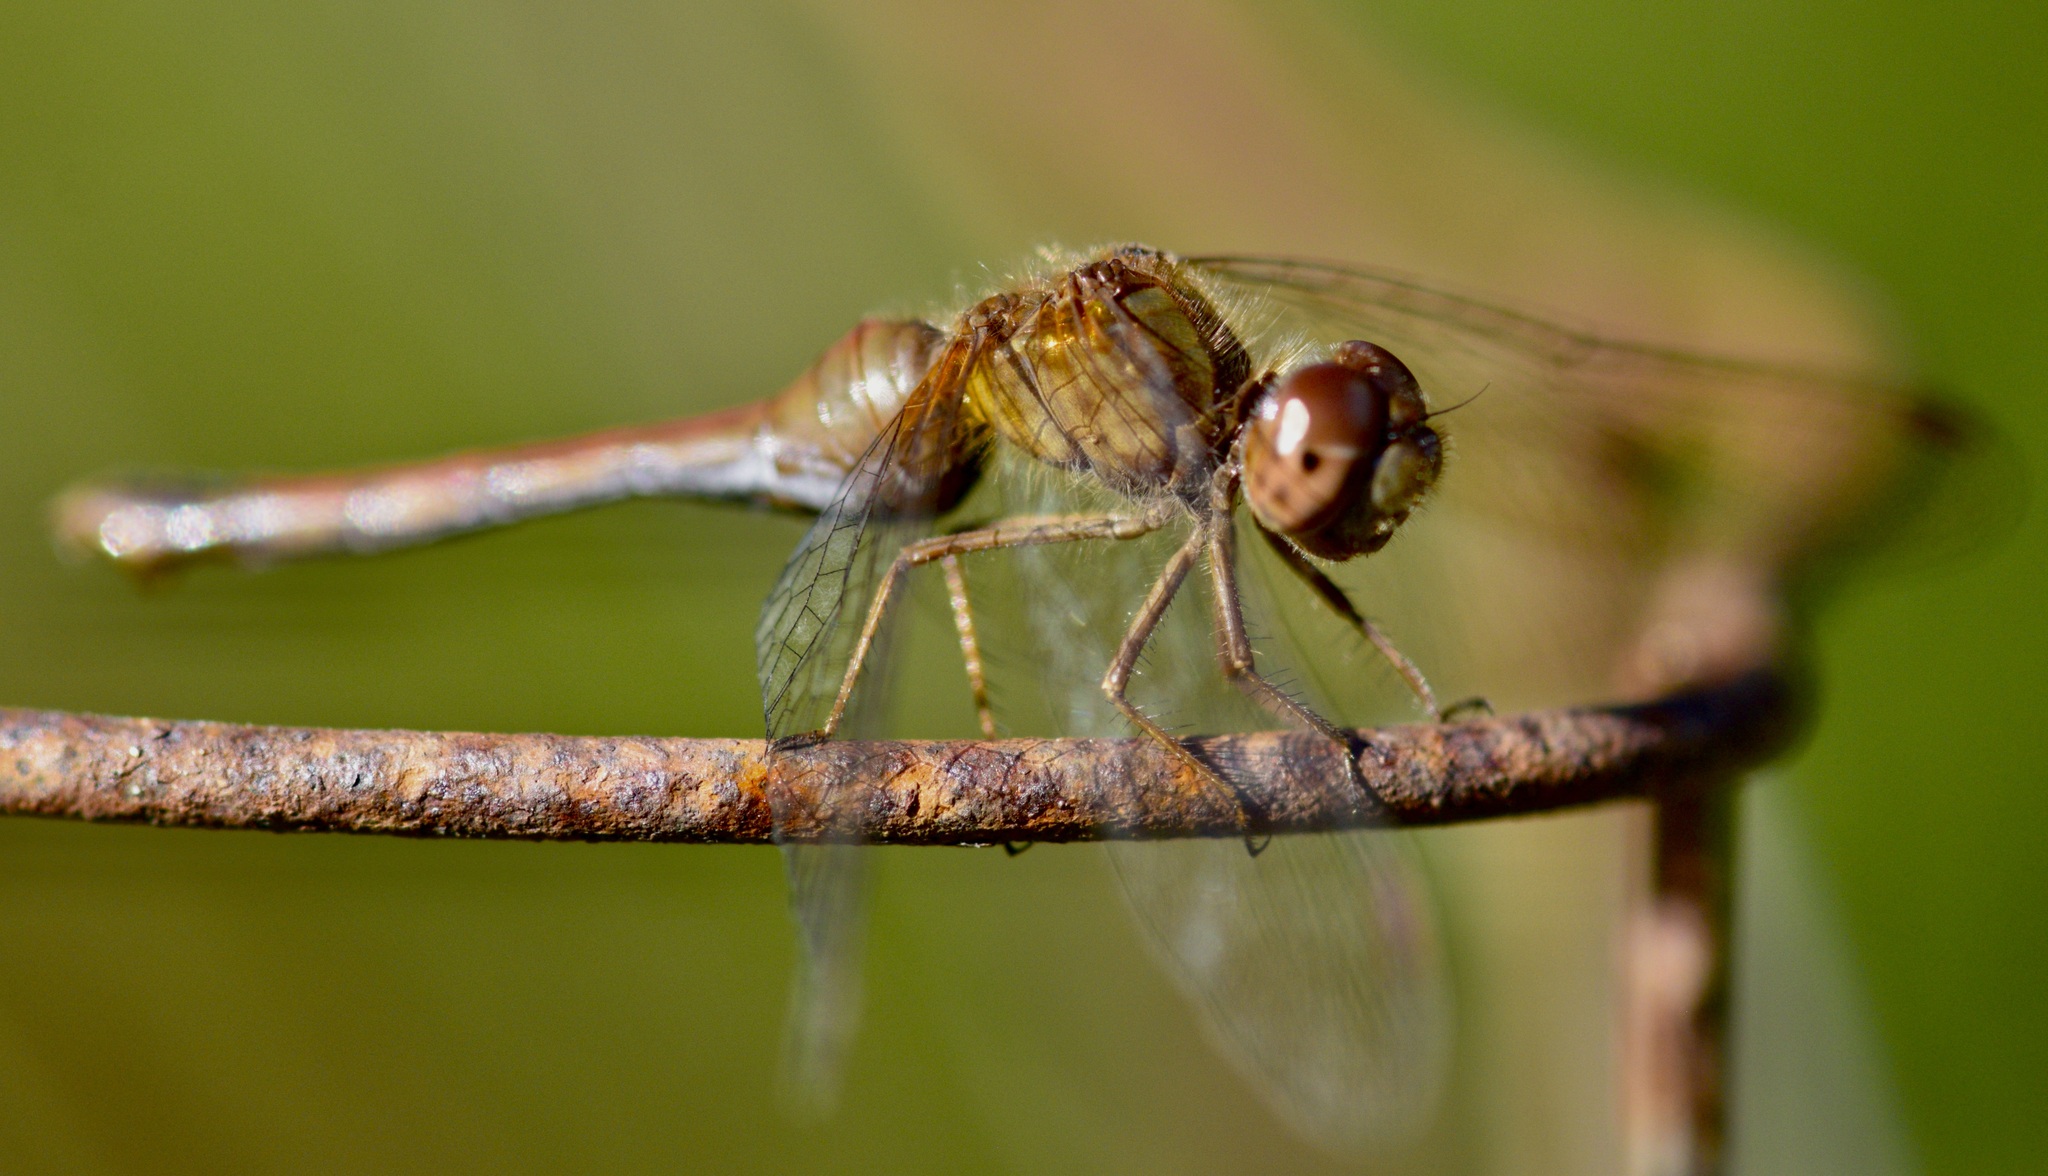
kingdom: Animalia
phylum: Arthropoda
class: Insecta
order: Odonata
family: Libellulidae
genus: Sympetrum
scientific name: Sympetrum vicinum
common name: Autumn meadowhawk
